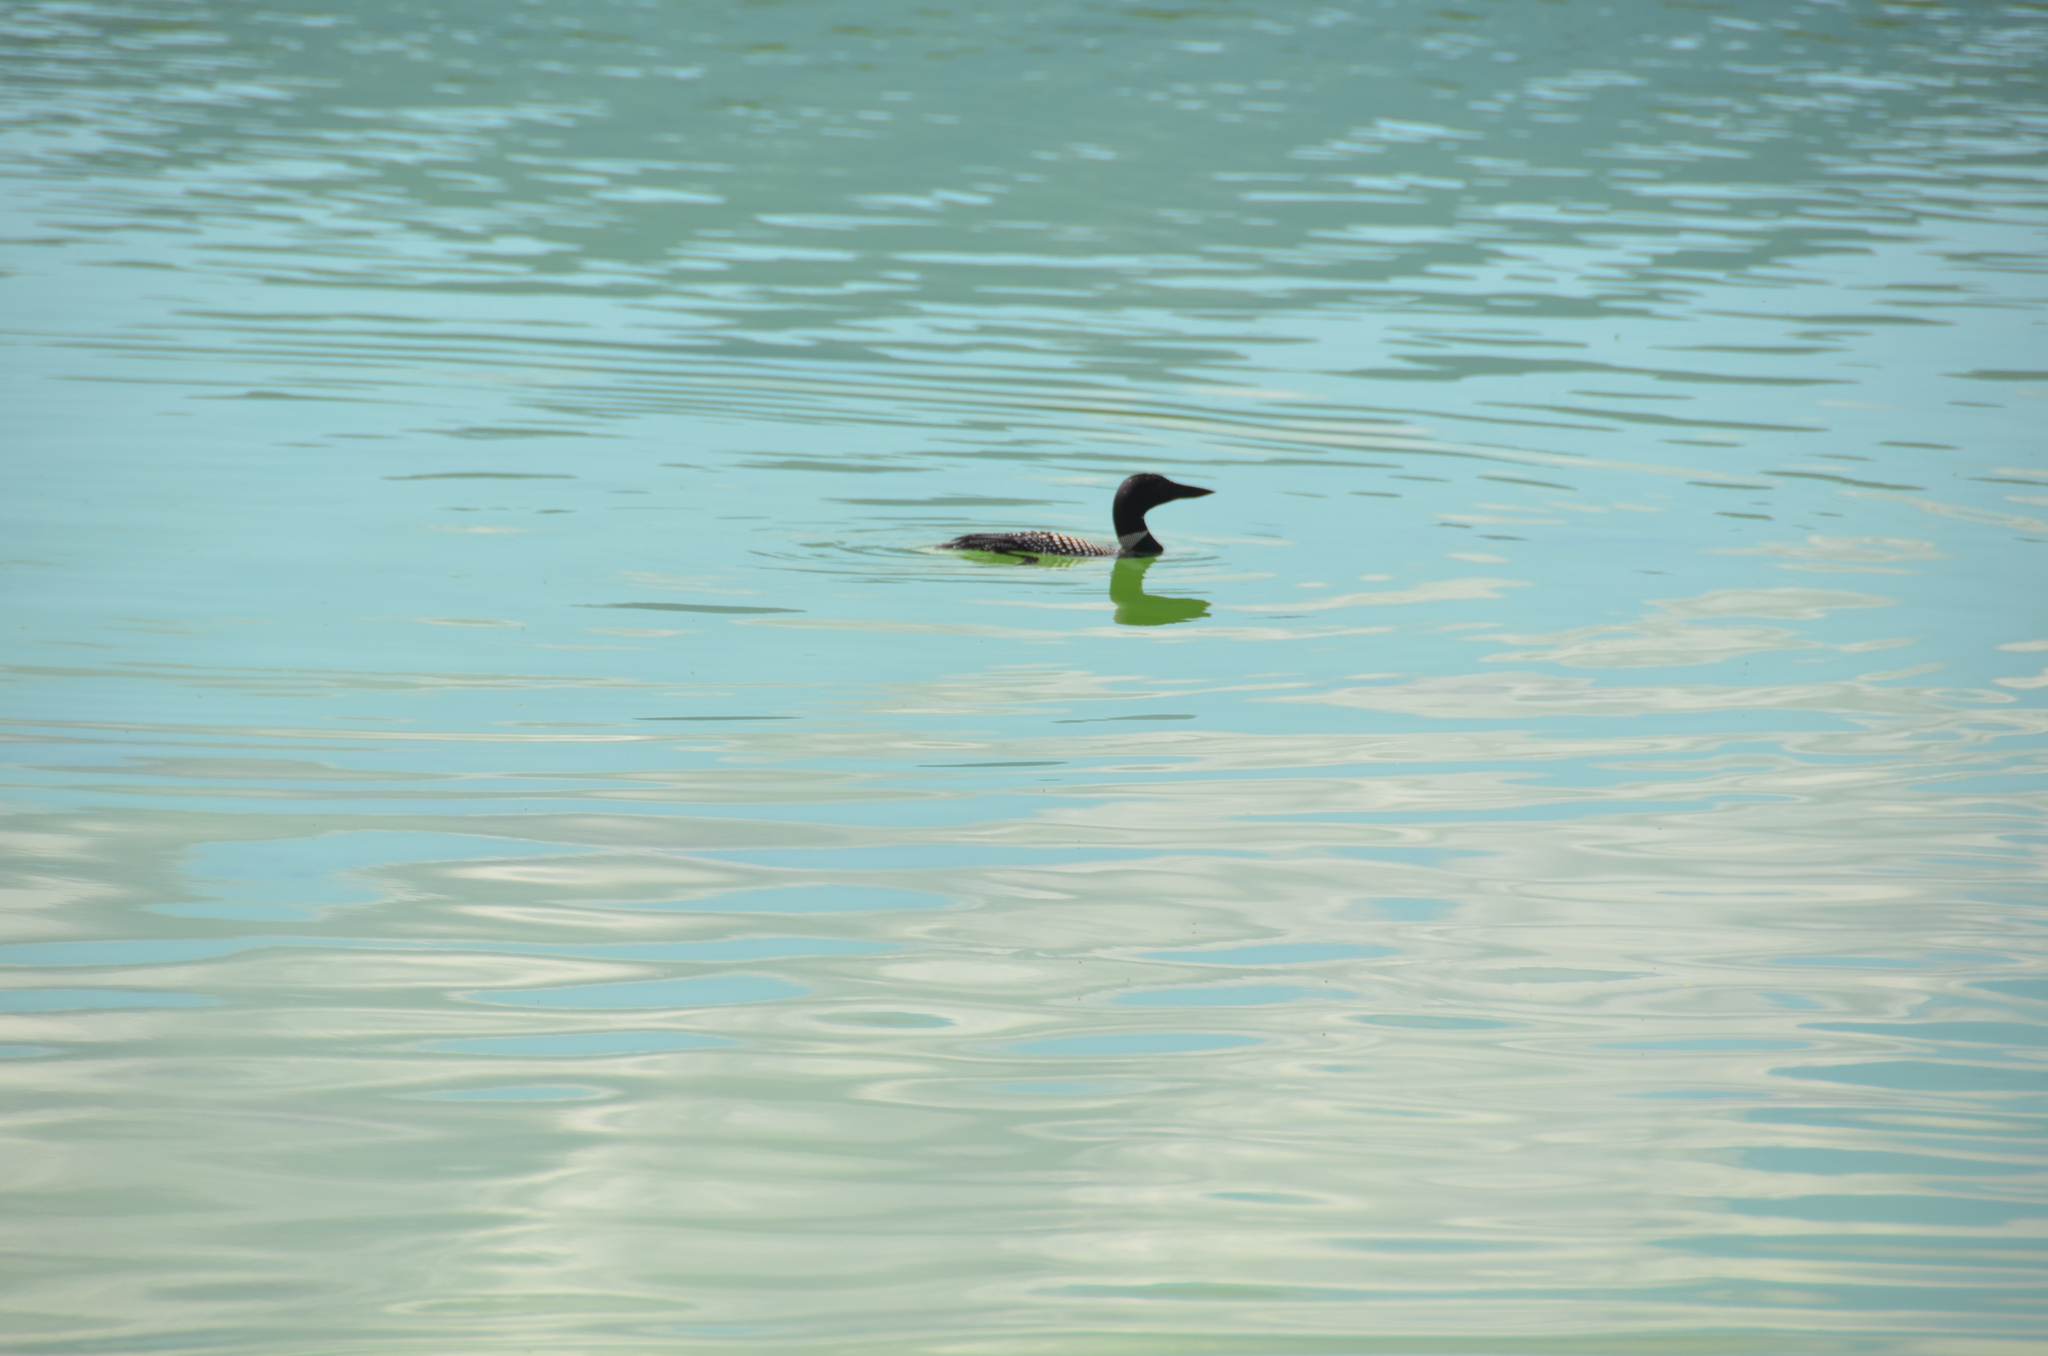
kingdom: Animalia
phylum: Chordata
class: Aves
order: Gaviiformes
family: Gaviidae
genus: Gavia
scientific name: Gavia immer
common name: Common loon
